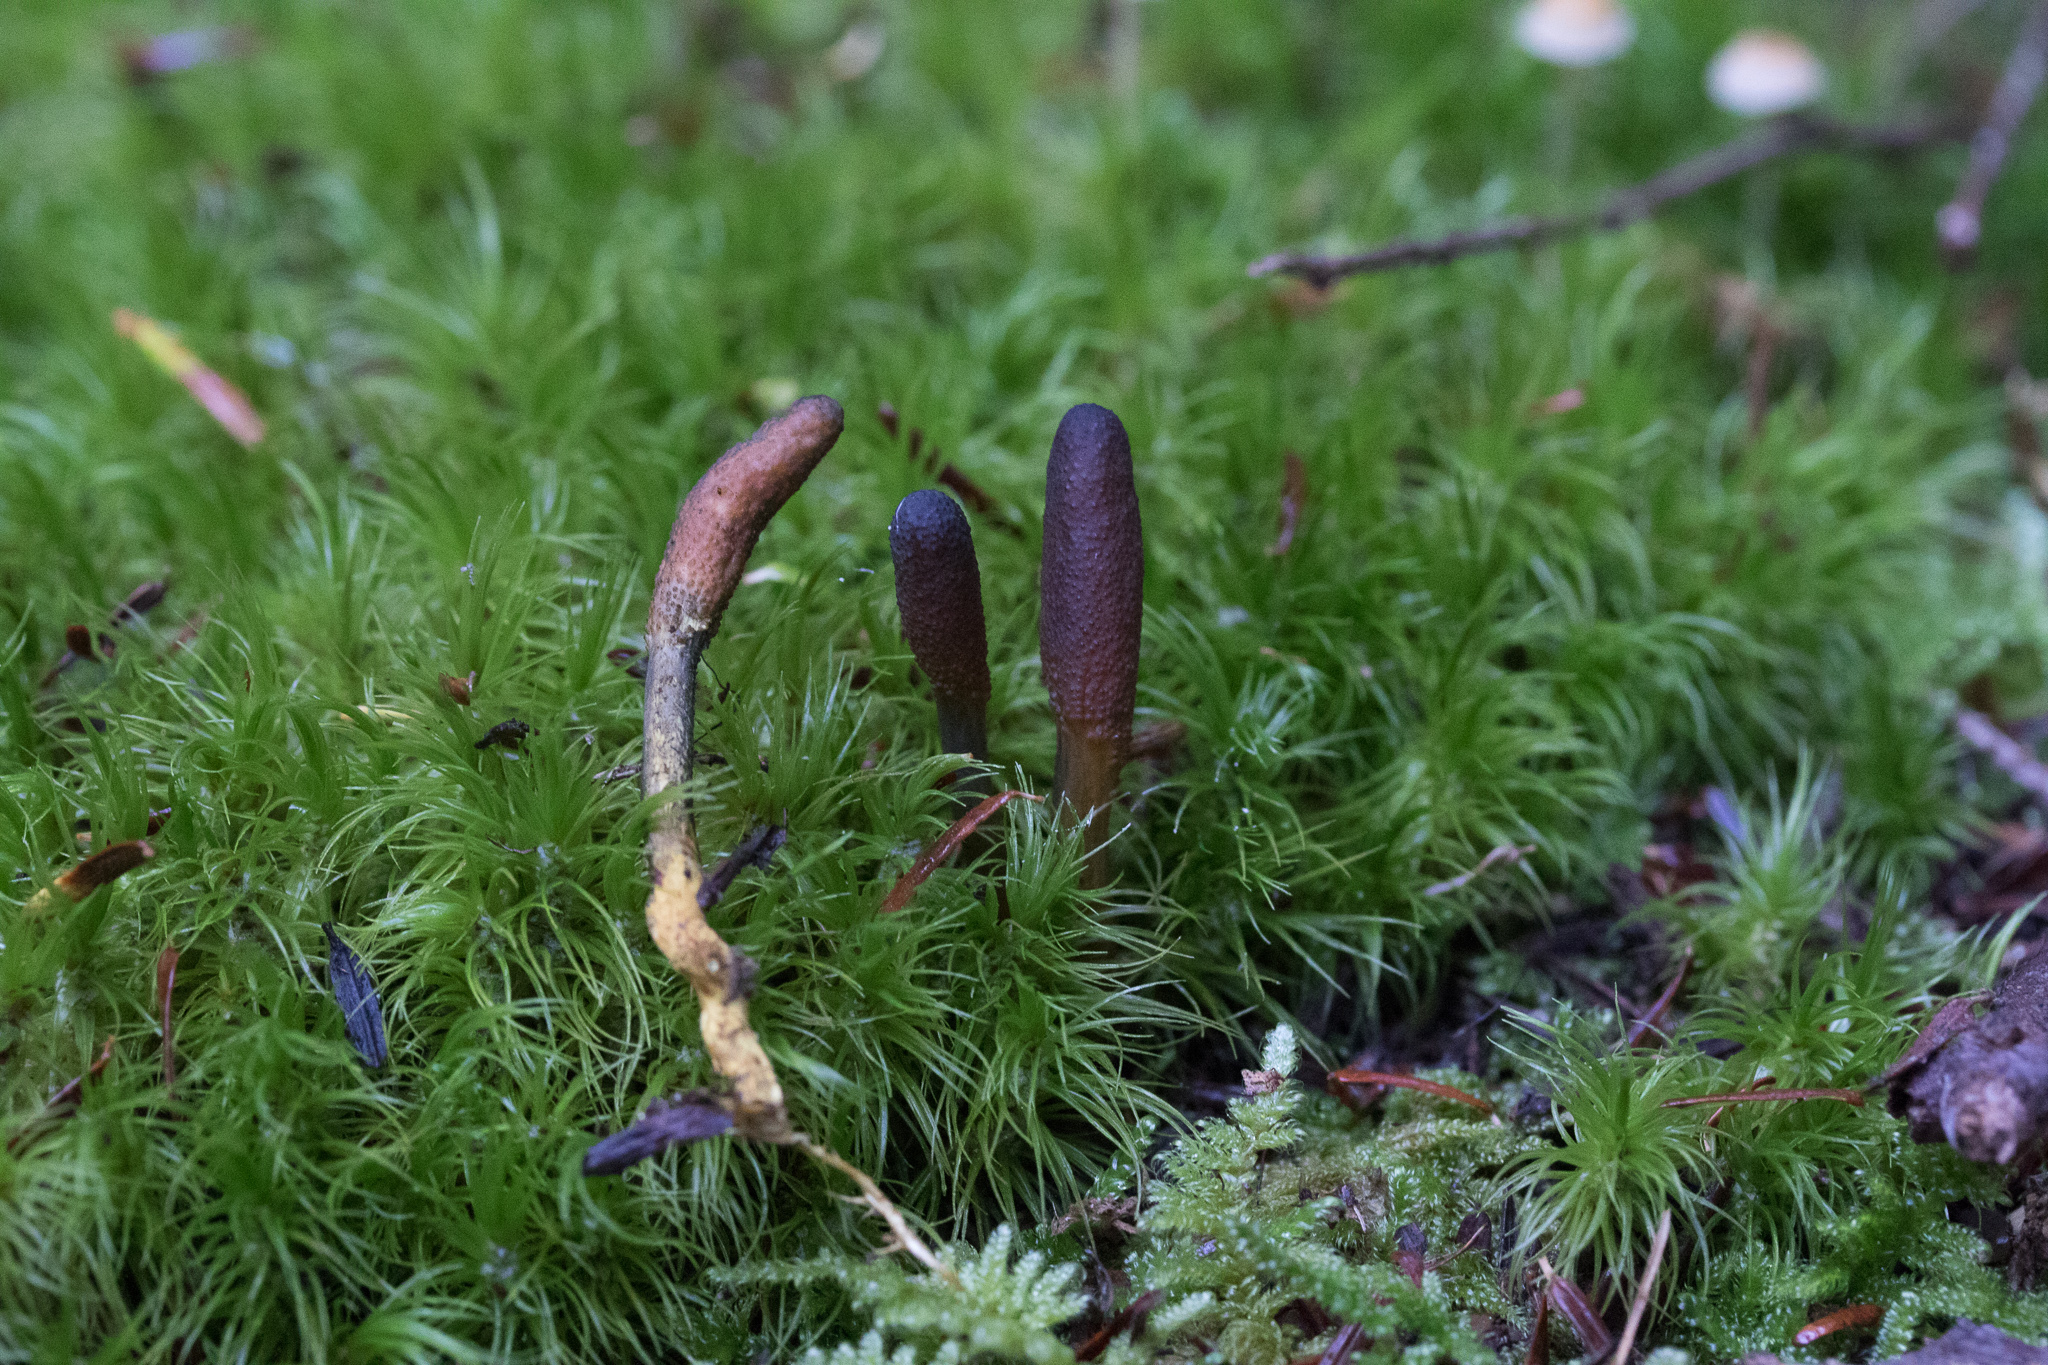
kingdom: Fungi
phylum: Ascomycota
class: Sordariomycetes
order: Hypocreales
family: Ophiocordycipitaceae
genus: Tolypocladium
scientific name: Tolypocladium ophioglossoides
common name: Snaketongue truffleclub
